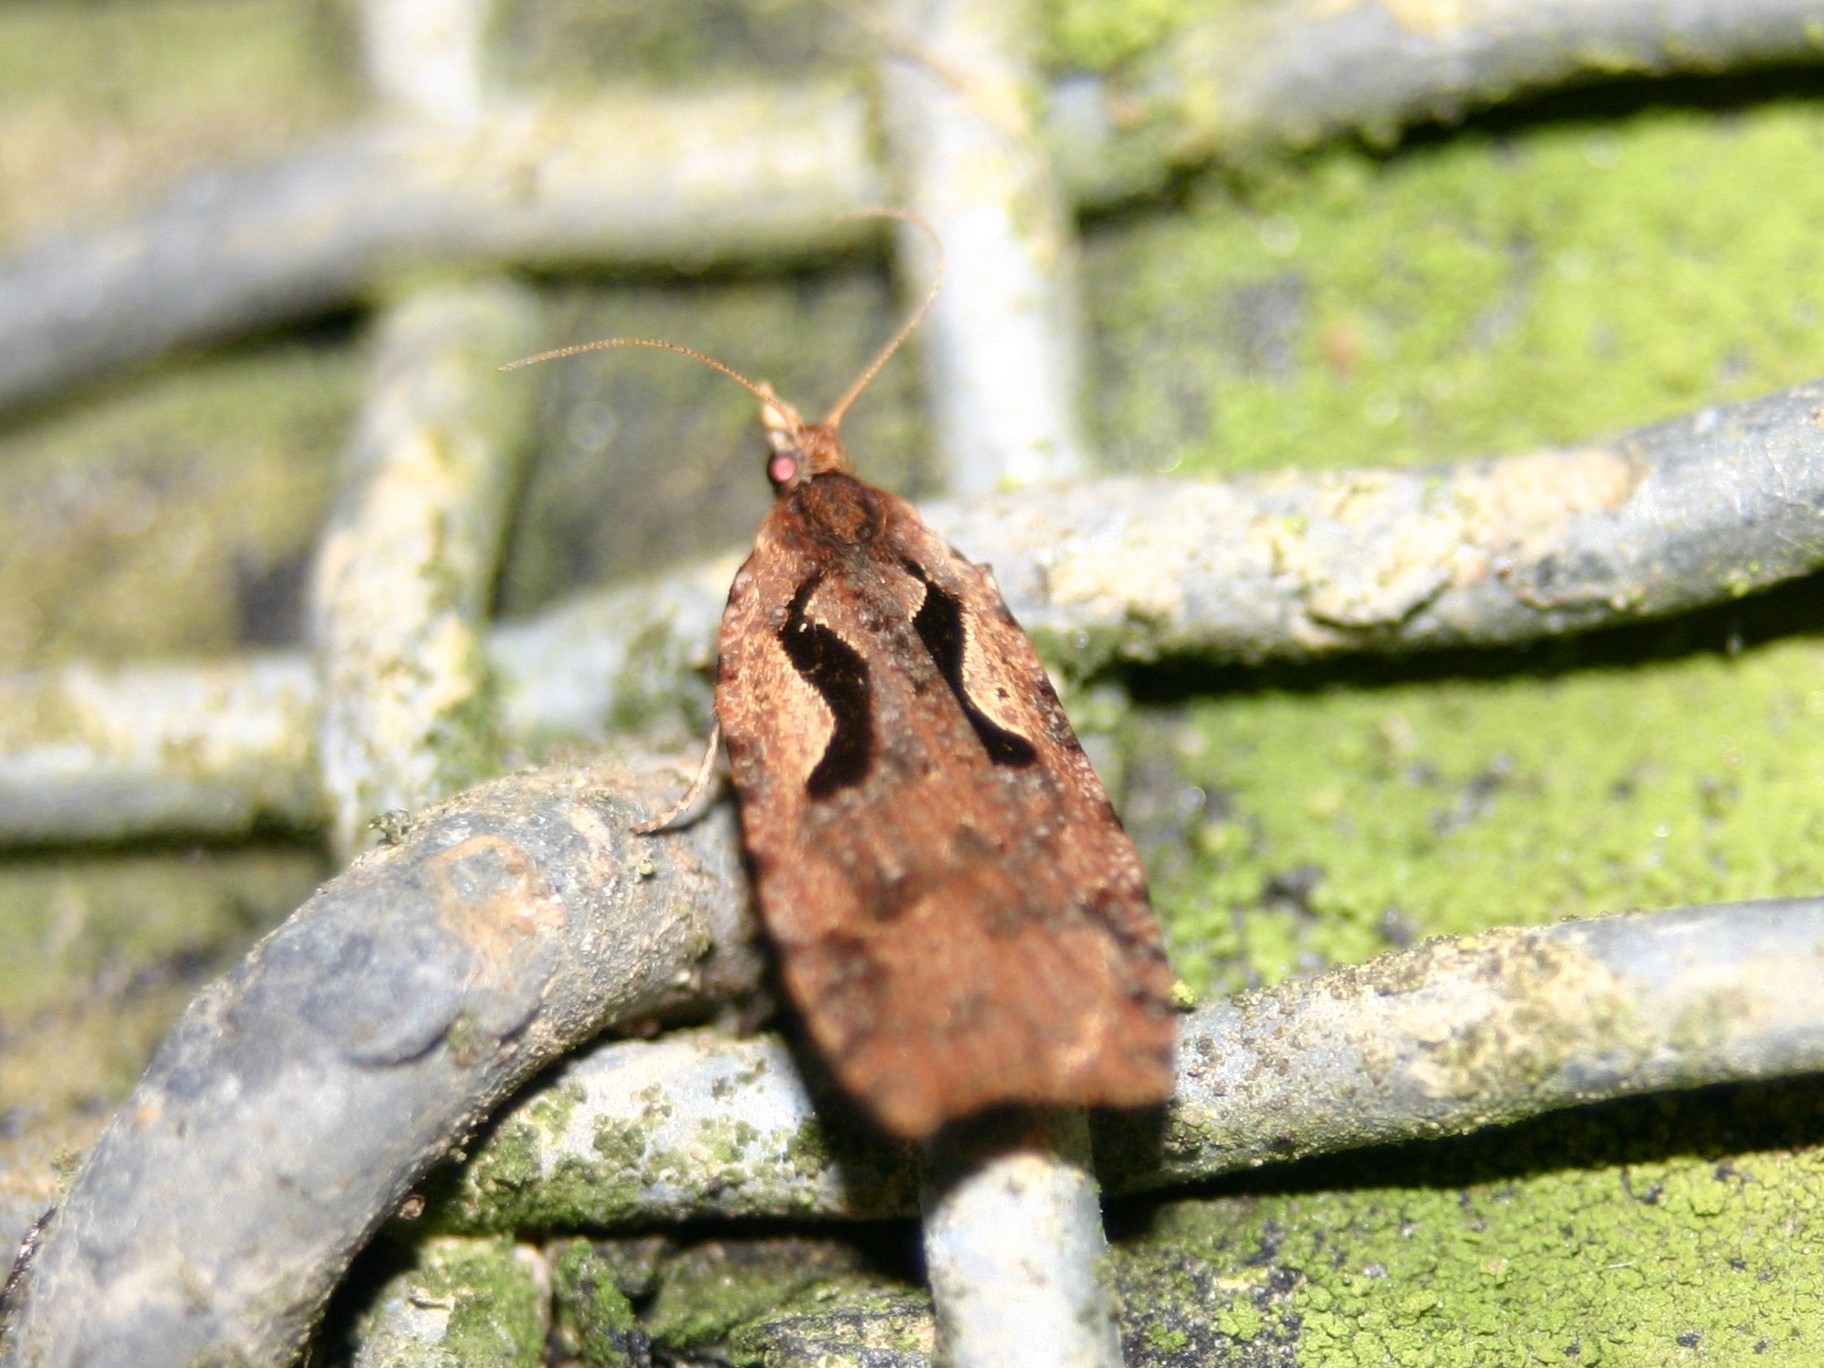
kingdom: Animalia
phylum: Arthropoda
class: Insecta
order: Lepidoptera
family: Tortricidae
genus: Cnephasia
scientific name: Cnephasia jactatana
